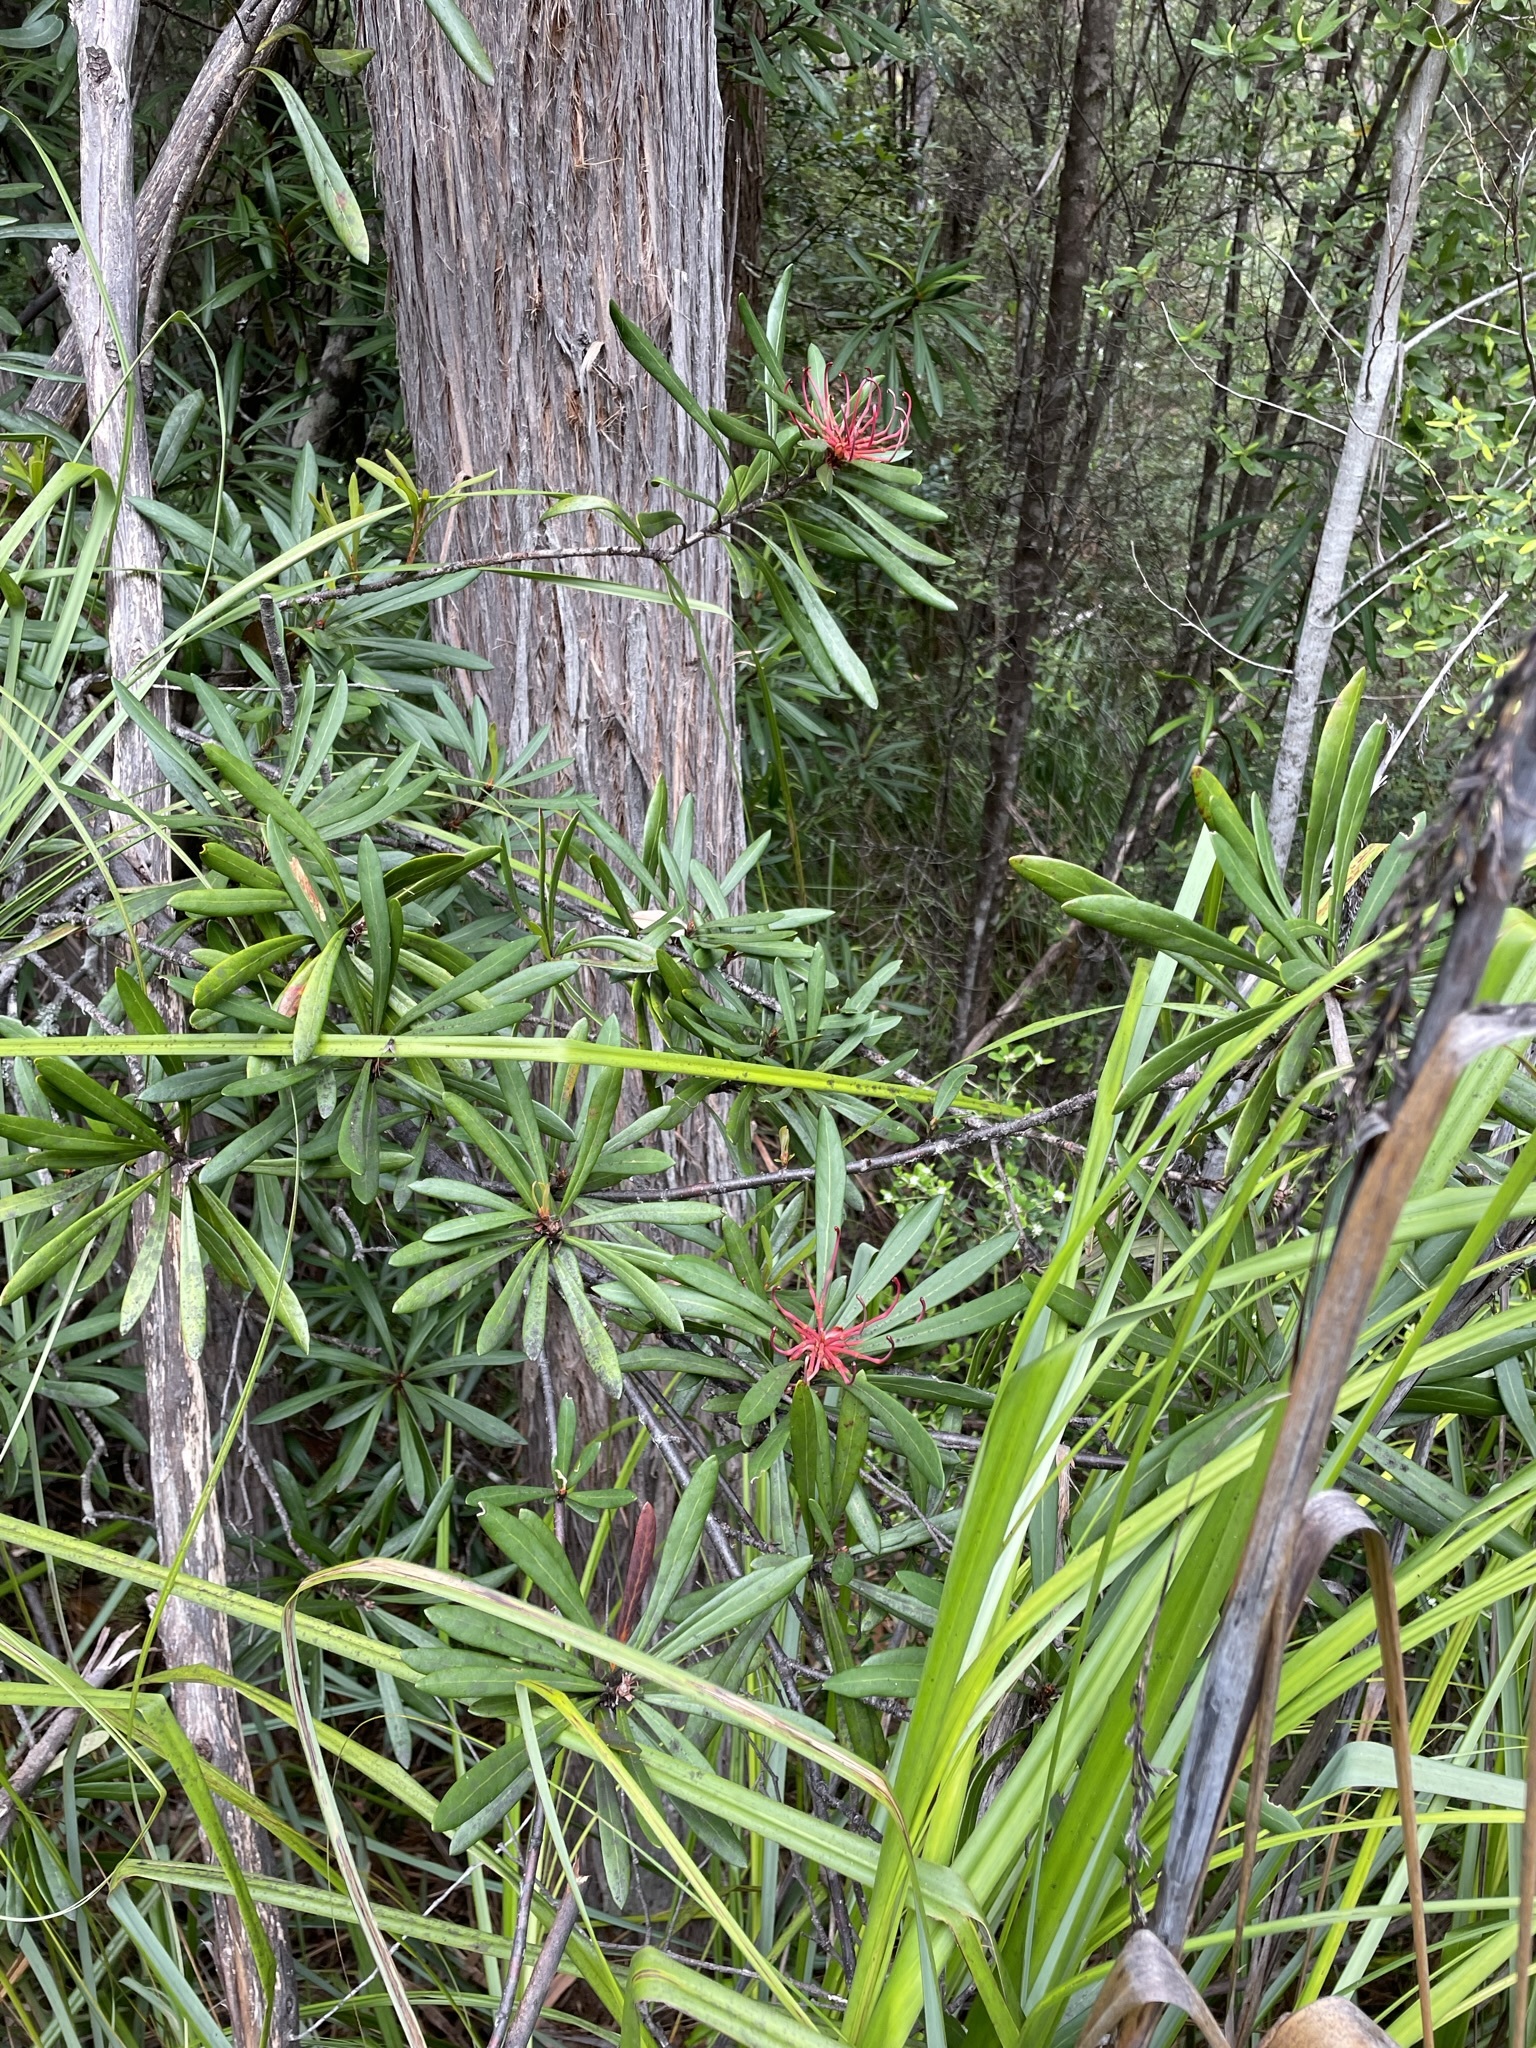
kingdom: Plantae
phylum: Tracheophyta
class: Magnoliopsida
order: Proteales
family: Proteaceae
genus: Telopea
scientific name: Telopea truncata
